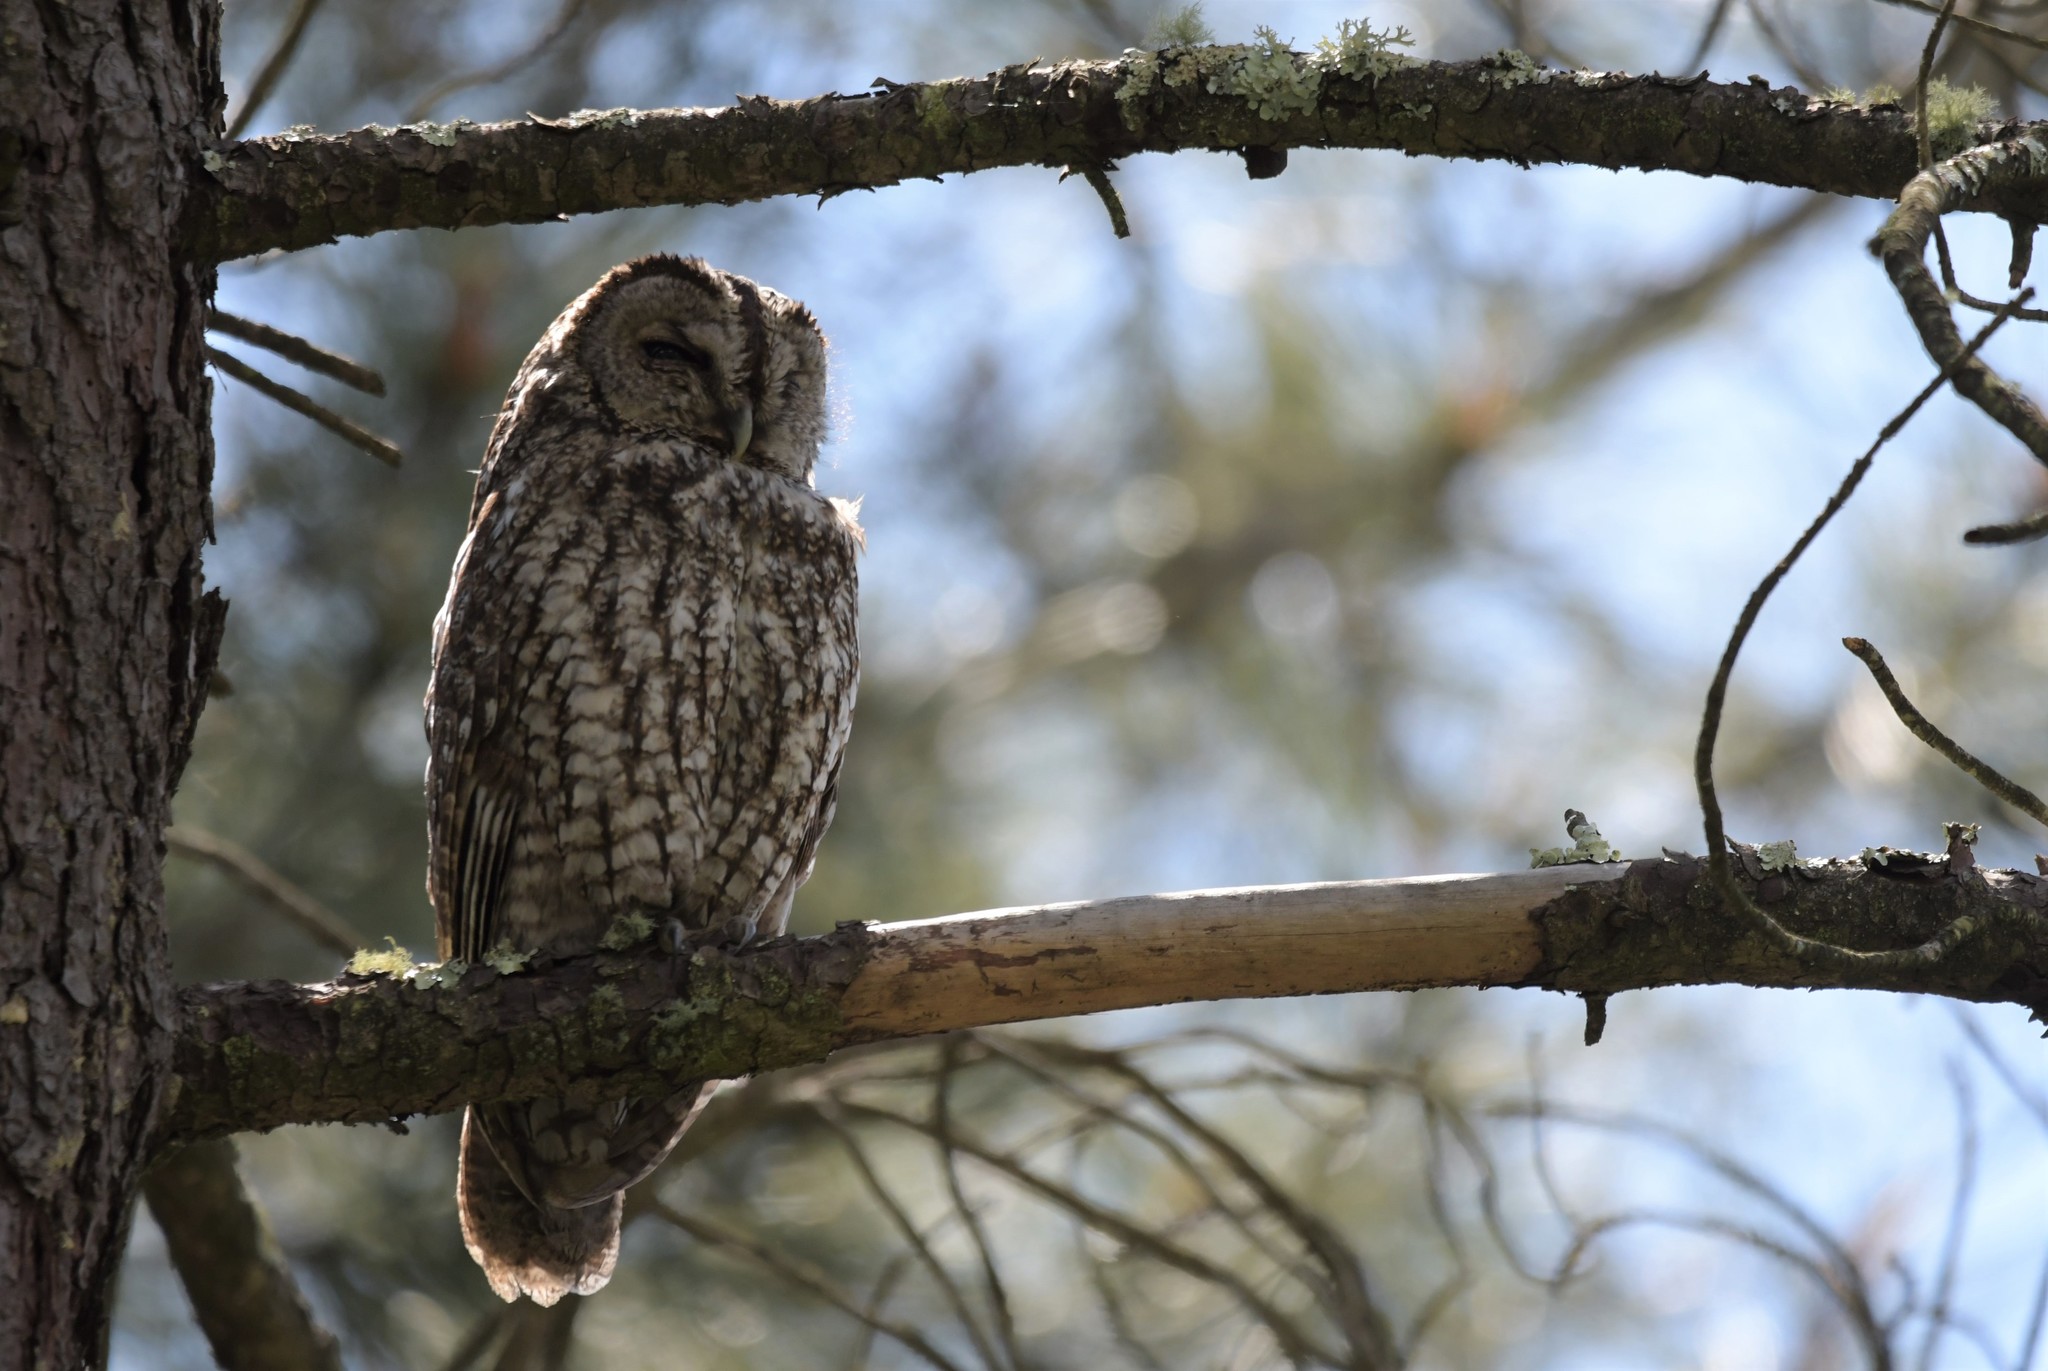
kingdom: Animalia
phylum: Chordata
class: Aves
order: Strigiformes
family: Strigidae
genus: Strix
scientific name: Strix aluco
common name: Tawny owl
